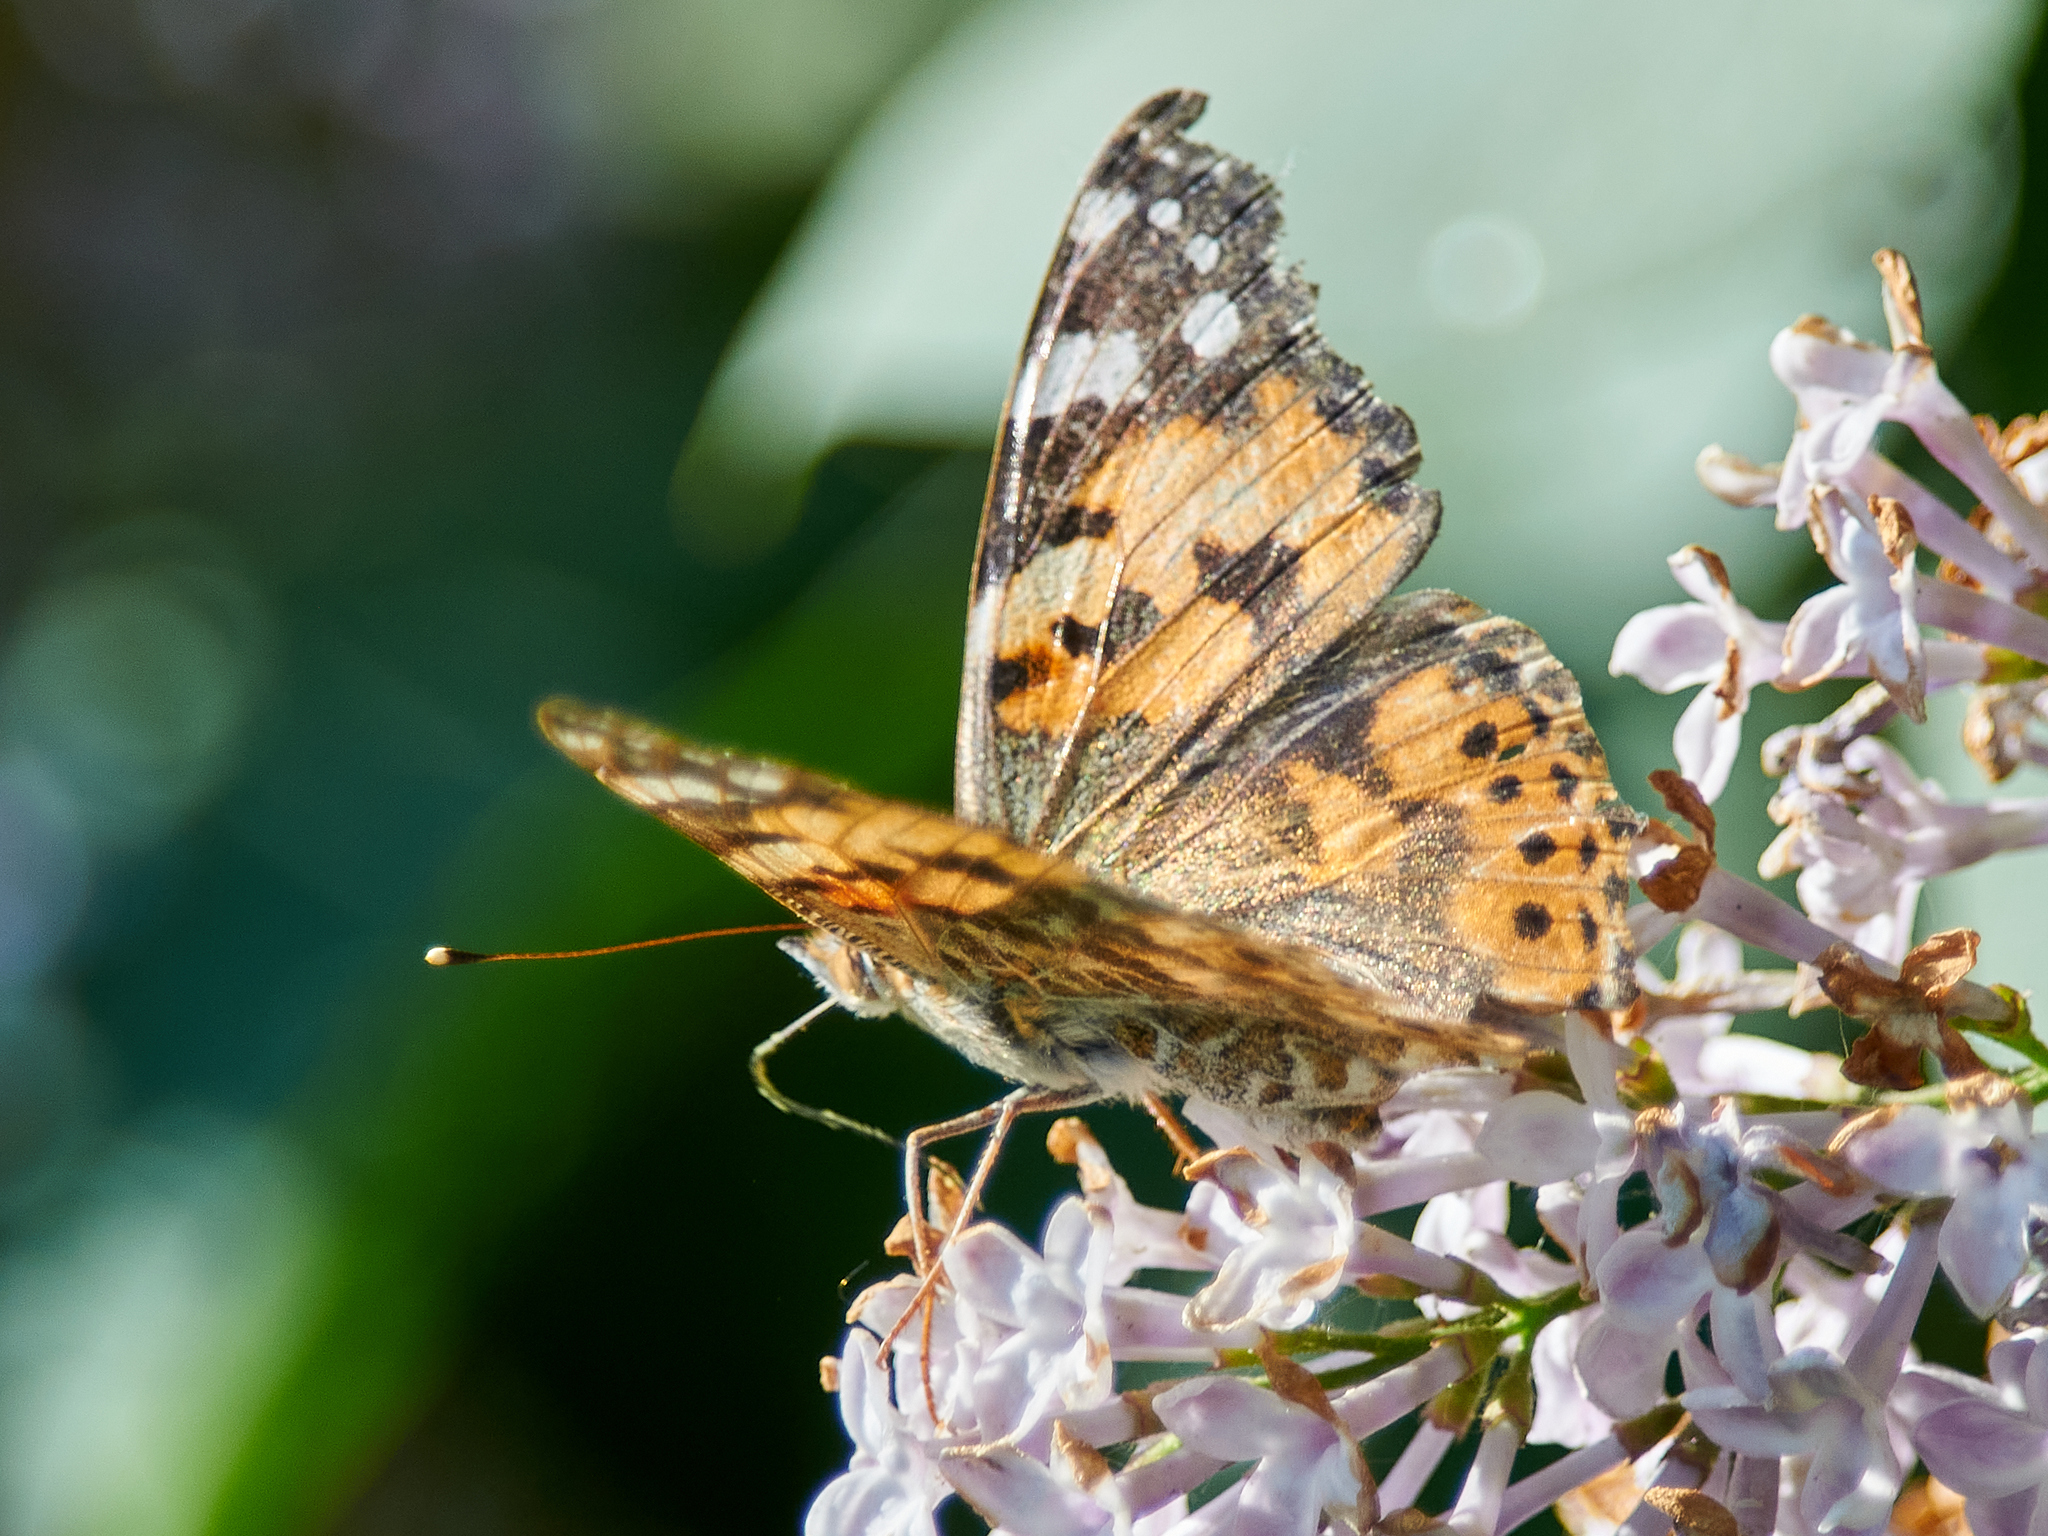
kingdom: Animalia
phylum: Arthropoda
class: Insecta
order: Lepidoptera
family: Nymphalidae
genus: Vanessa
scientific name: Vanessa cardui
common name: Painted lady
